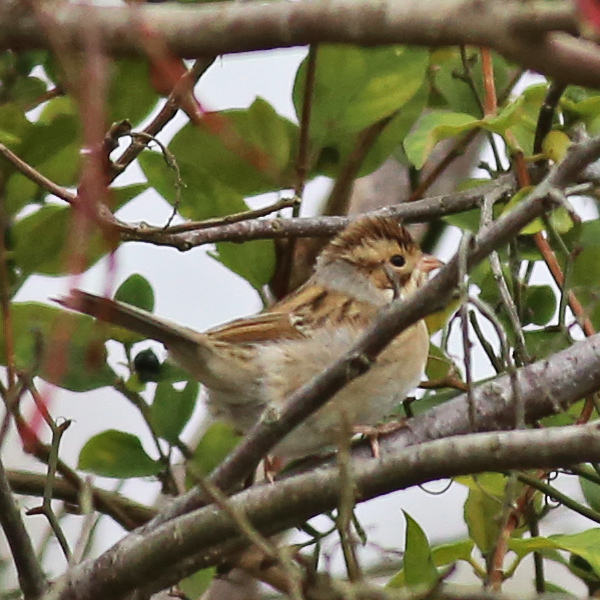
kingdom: Animalia
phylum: Chordata
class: Aves
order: Passeriformes
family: Passerellidae
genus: Spizella
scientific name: Spizella pallida
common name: Clay-colored sparrow
